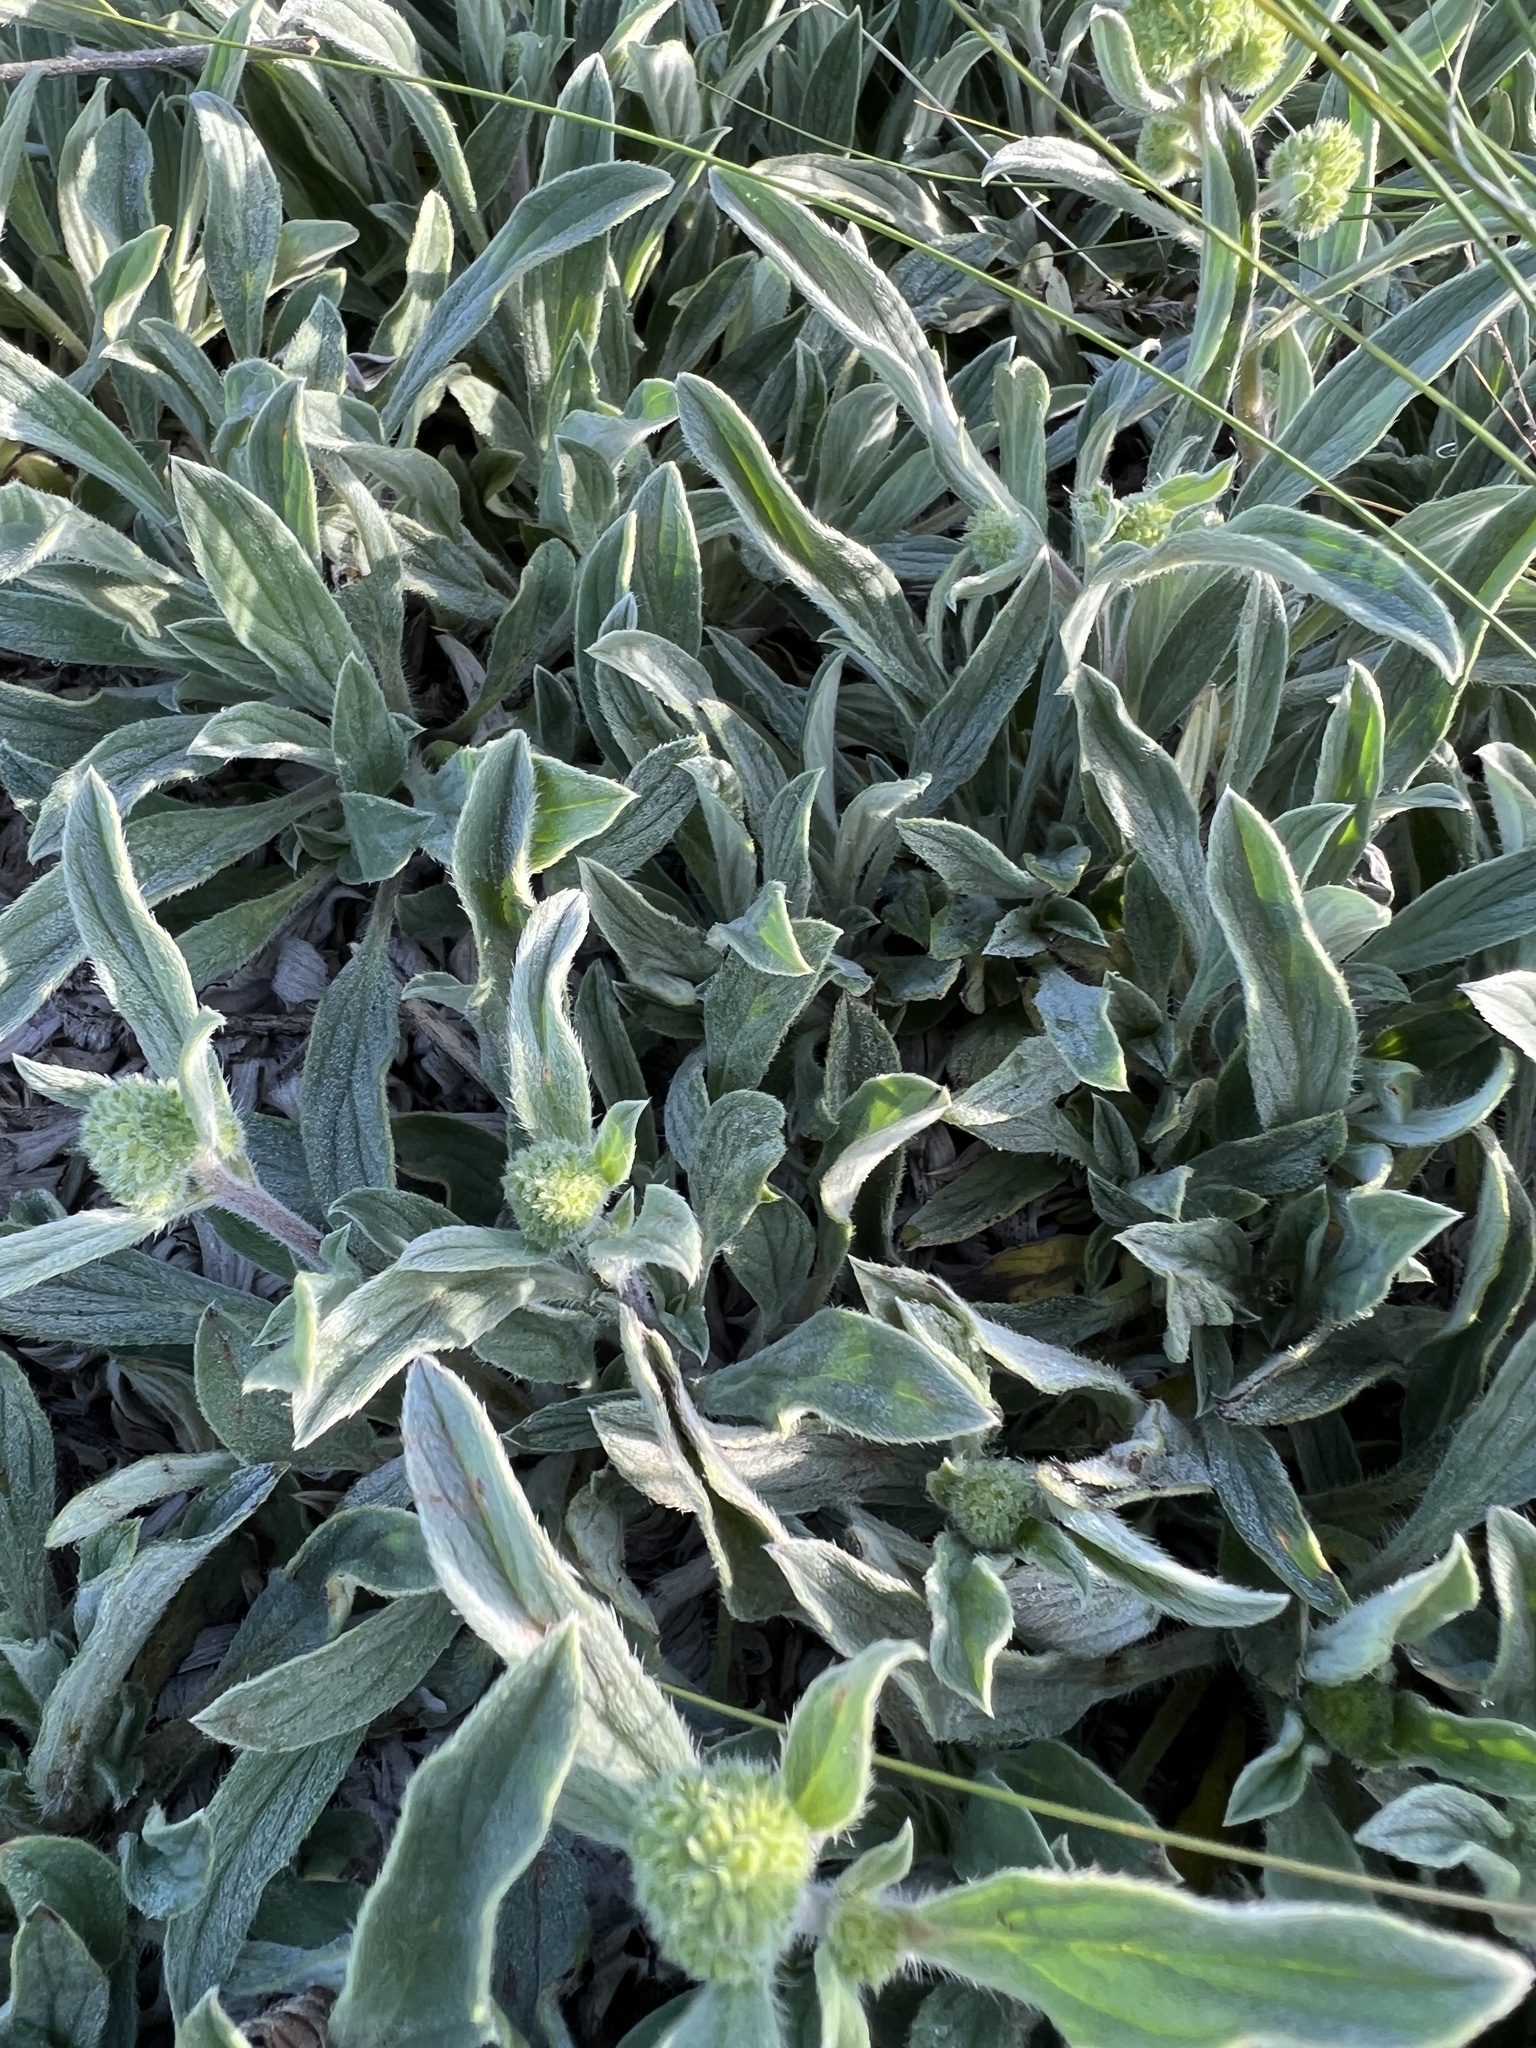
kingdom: Plantae
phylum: Tracheophyta
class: Magnoliopsida
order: Boraginales
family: Hydrophyllaceae
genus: Phacelia
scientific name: Phacelia hastata
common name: Silver-leaved phacelia
